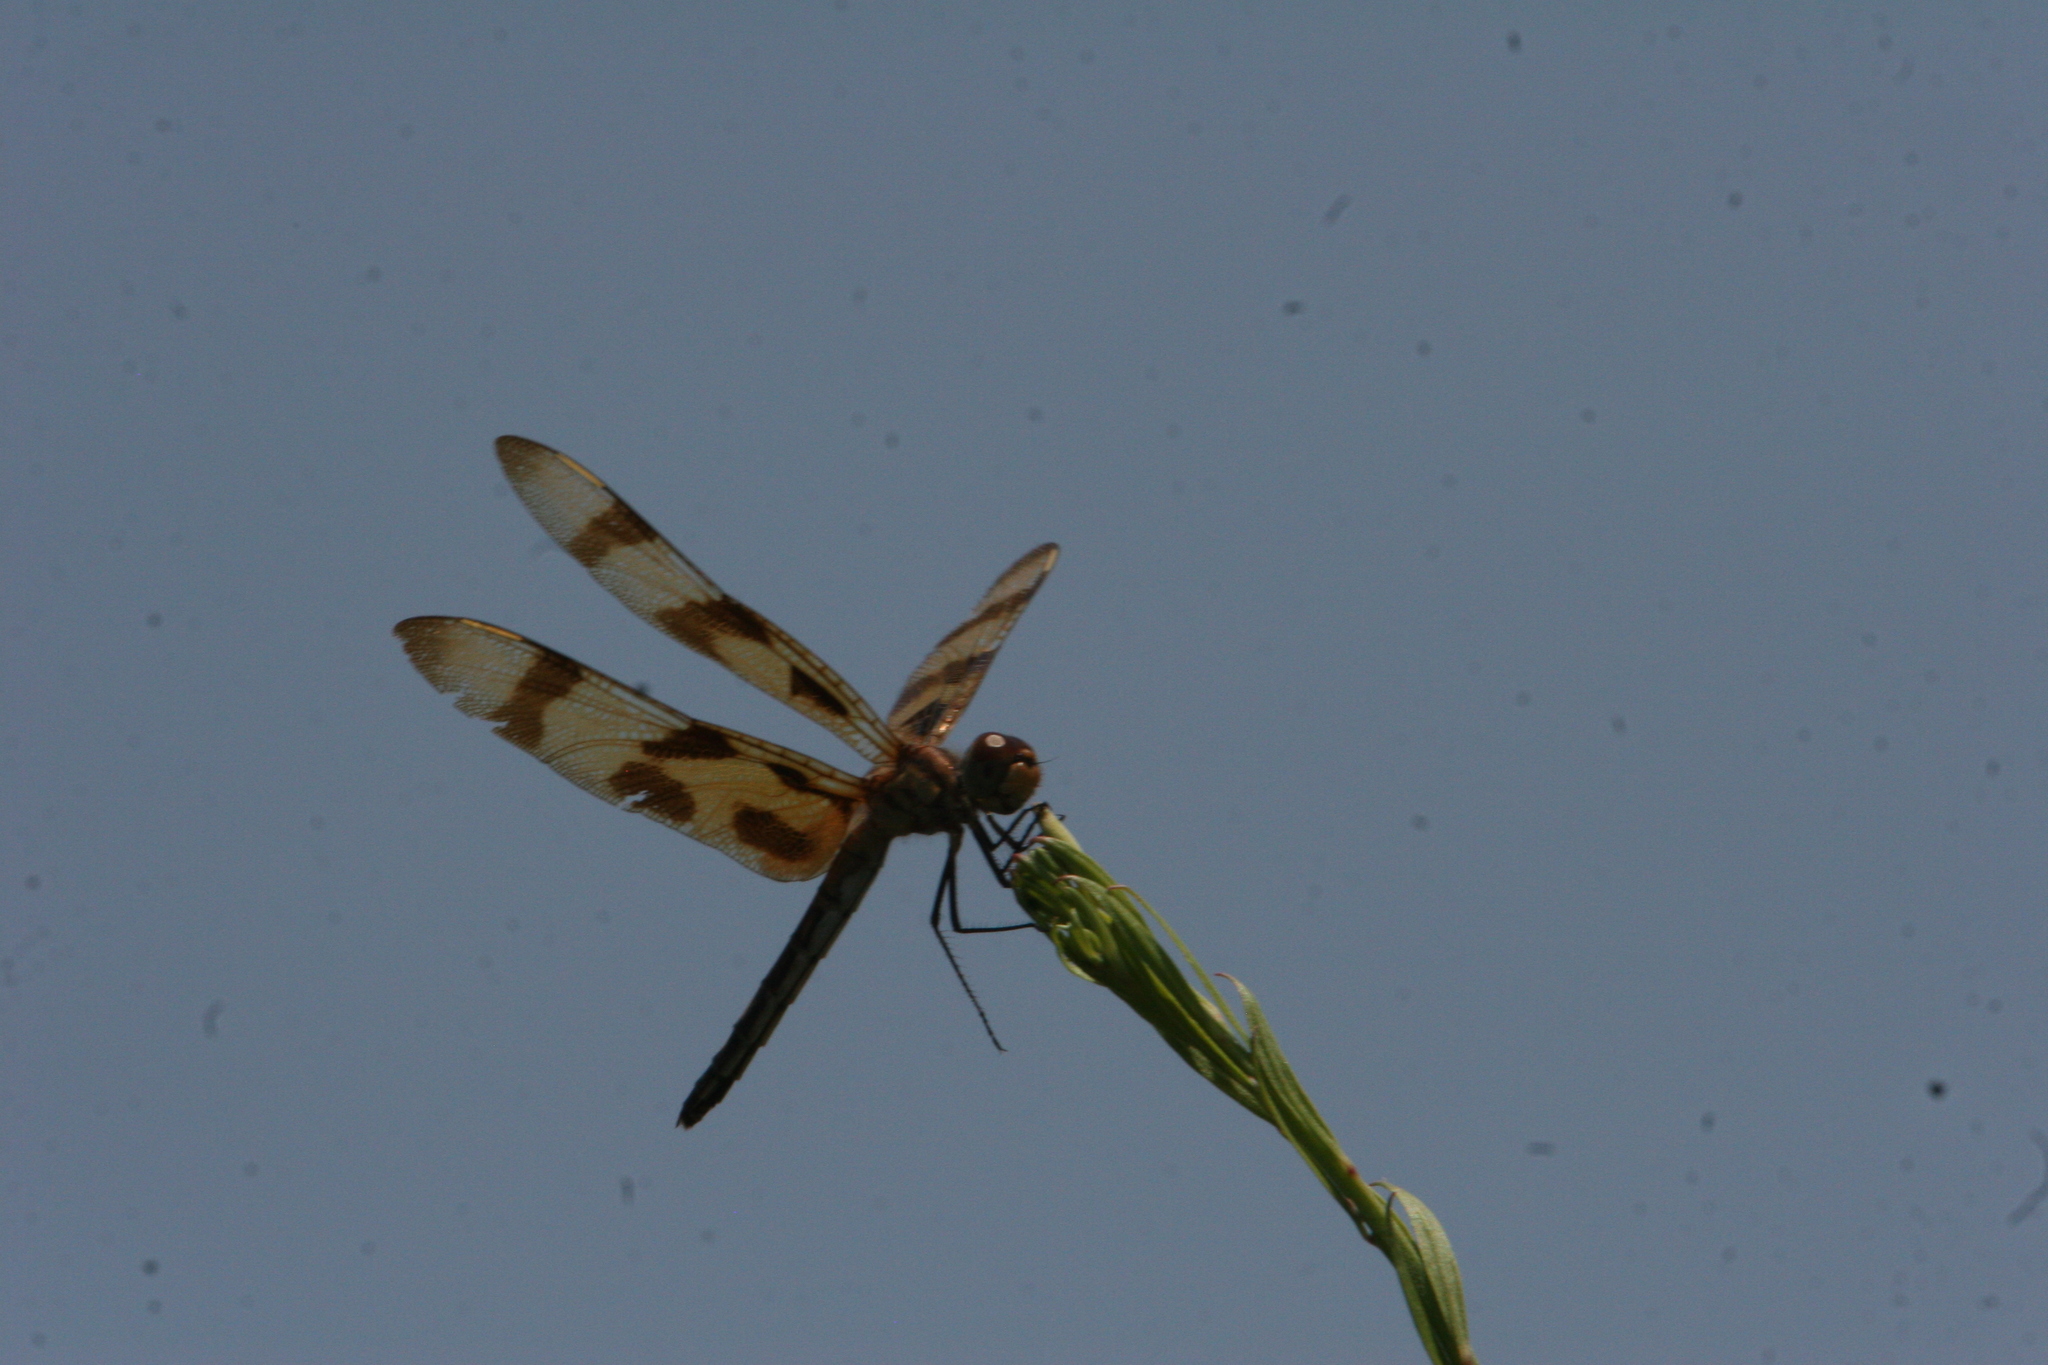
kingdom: Animalia
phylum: Arthropoda
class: Insecta
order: Odonata
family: Libellulidae
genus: Celithemis
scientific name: Celithemis eponina
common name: Halloween pennant
